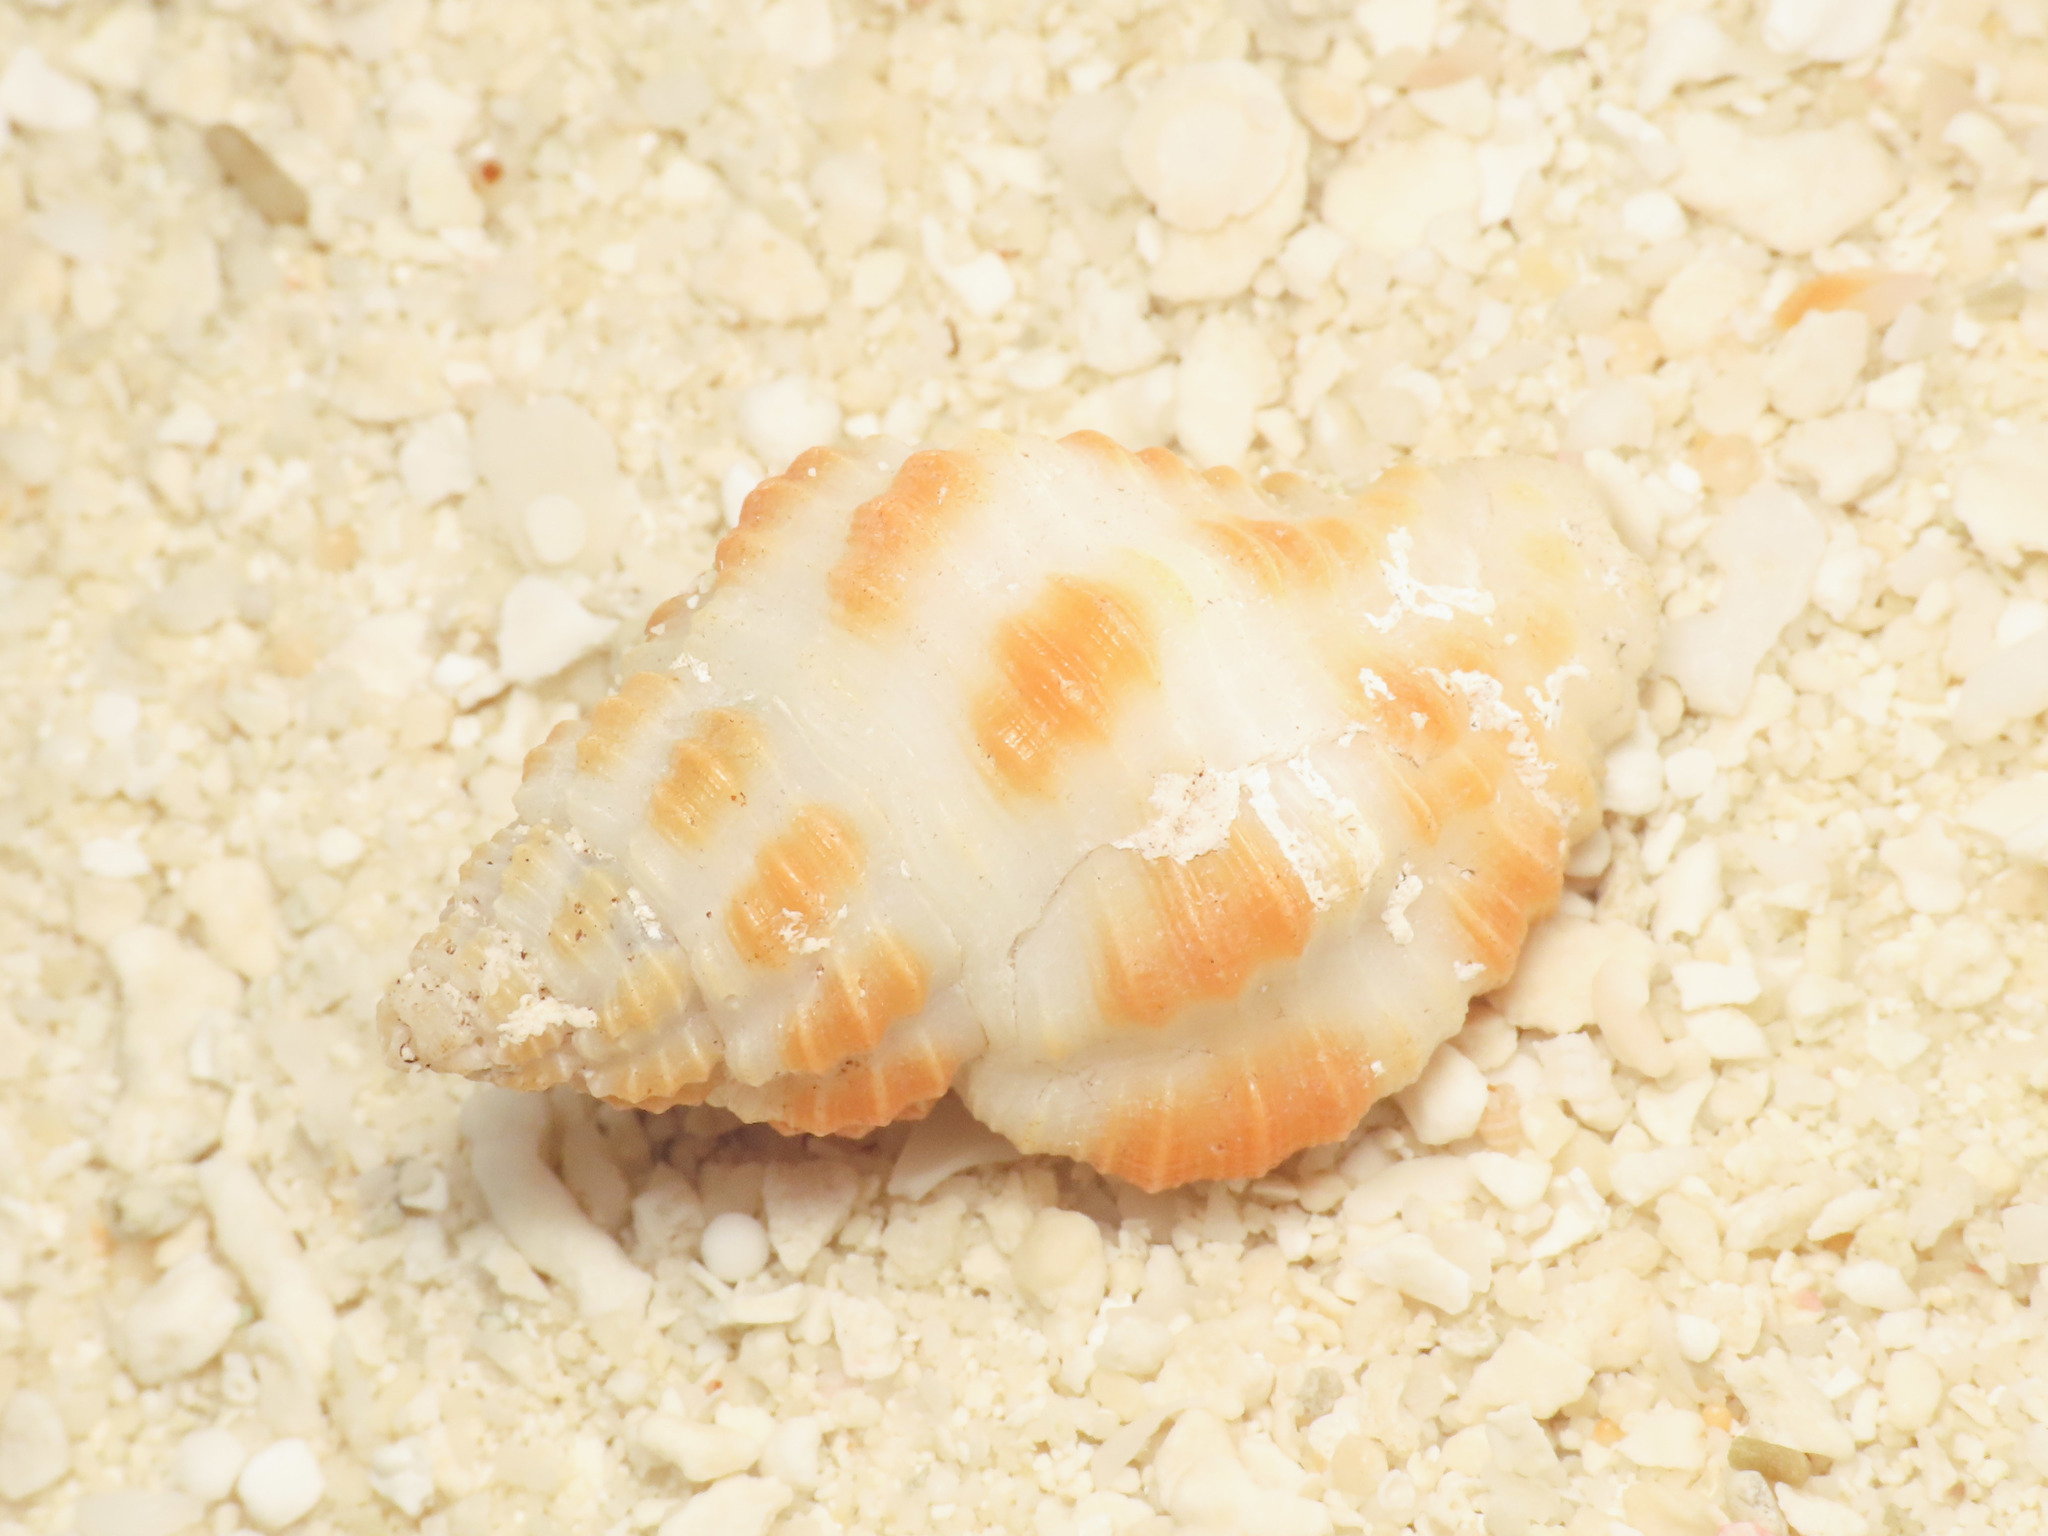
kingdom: Animalia
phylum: Mollusca
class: Gastropoda
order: Neogastropoda
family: Pisaniidae
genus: Pollia
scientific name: Pollia fumosa
